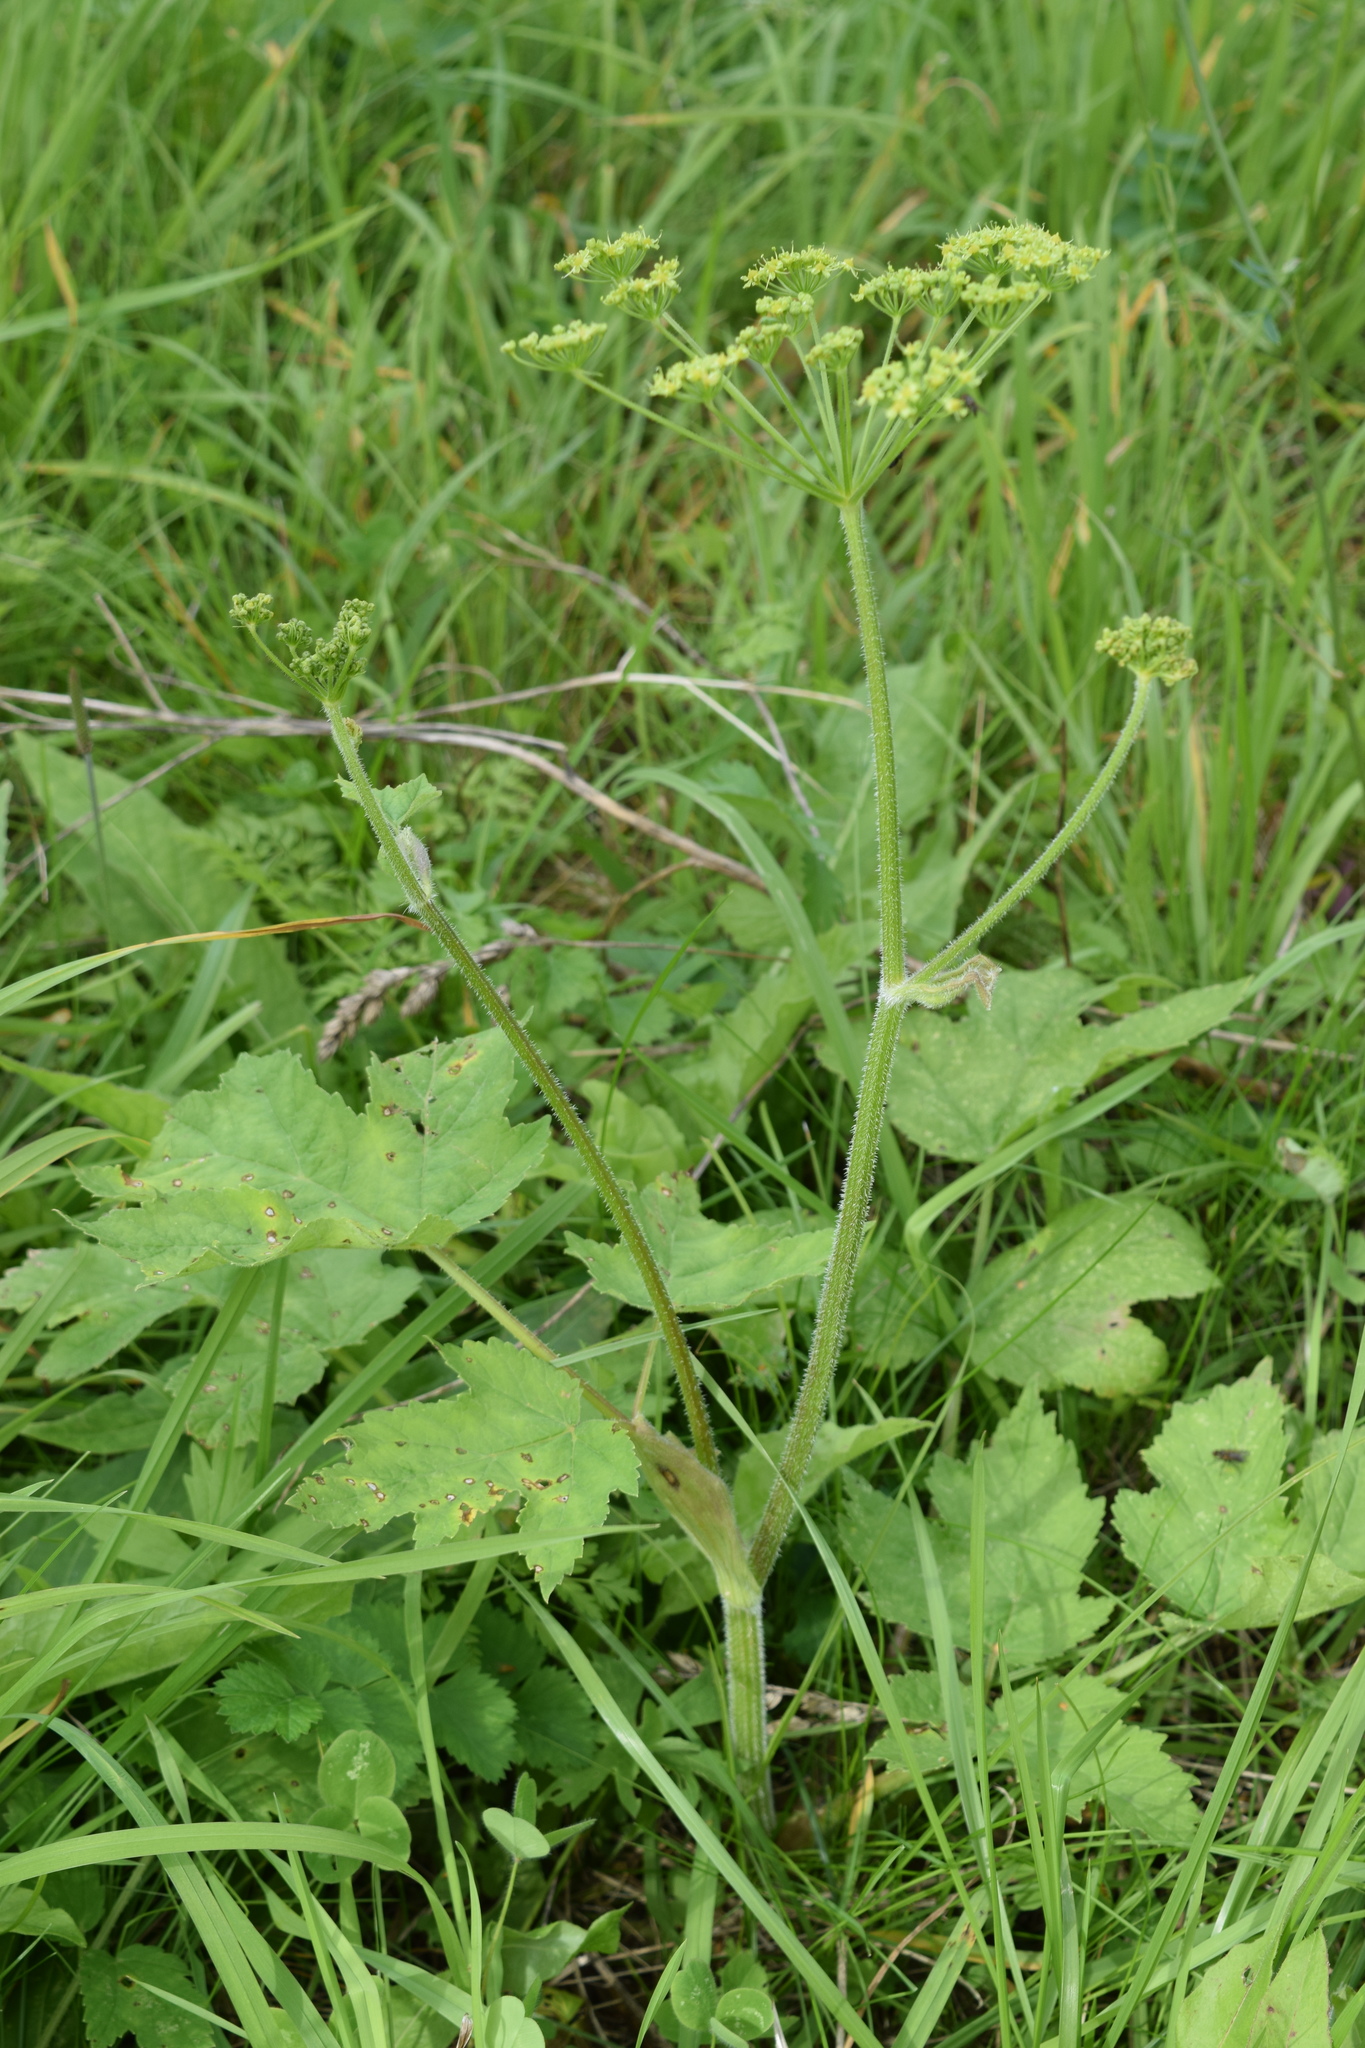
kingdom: Plantae
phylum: Tracheophyta
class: Magnoliopsida
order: Apiales
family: Apiaceae
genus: Heracleum
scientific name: Heracleum sphondylium
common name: Hogweed
